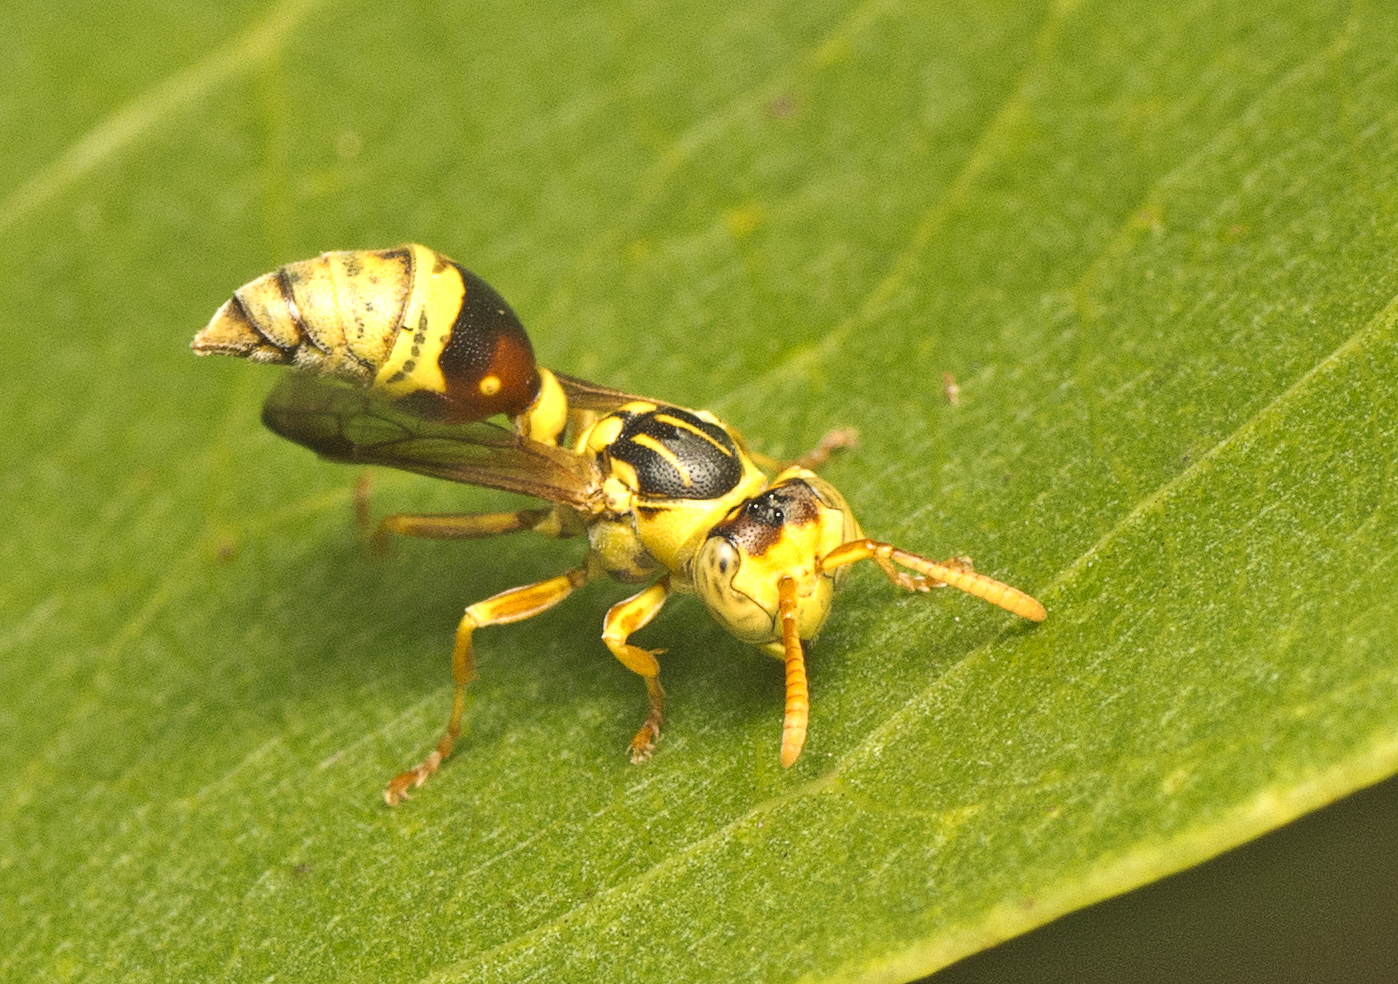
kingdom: Animalia
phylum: Arthropoda
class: Insecta
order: Hymenoptera
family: Vespidae
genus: Ropalidia
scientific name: Ropalidia romandi
